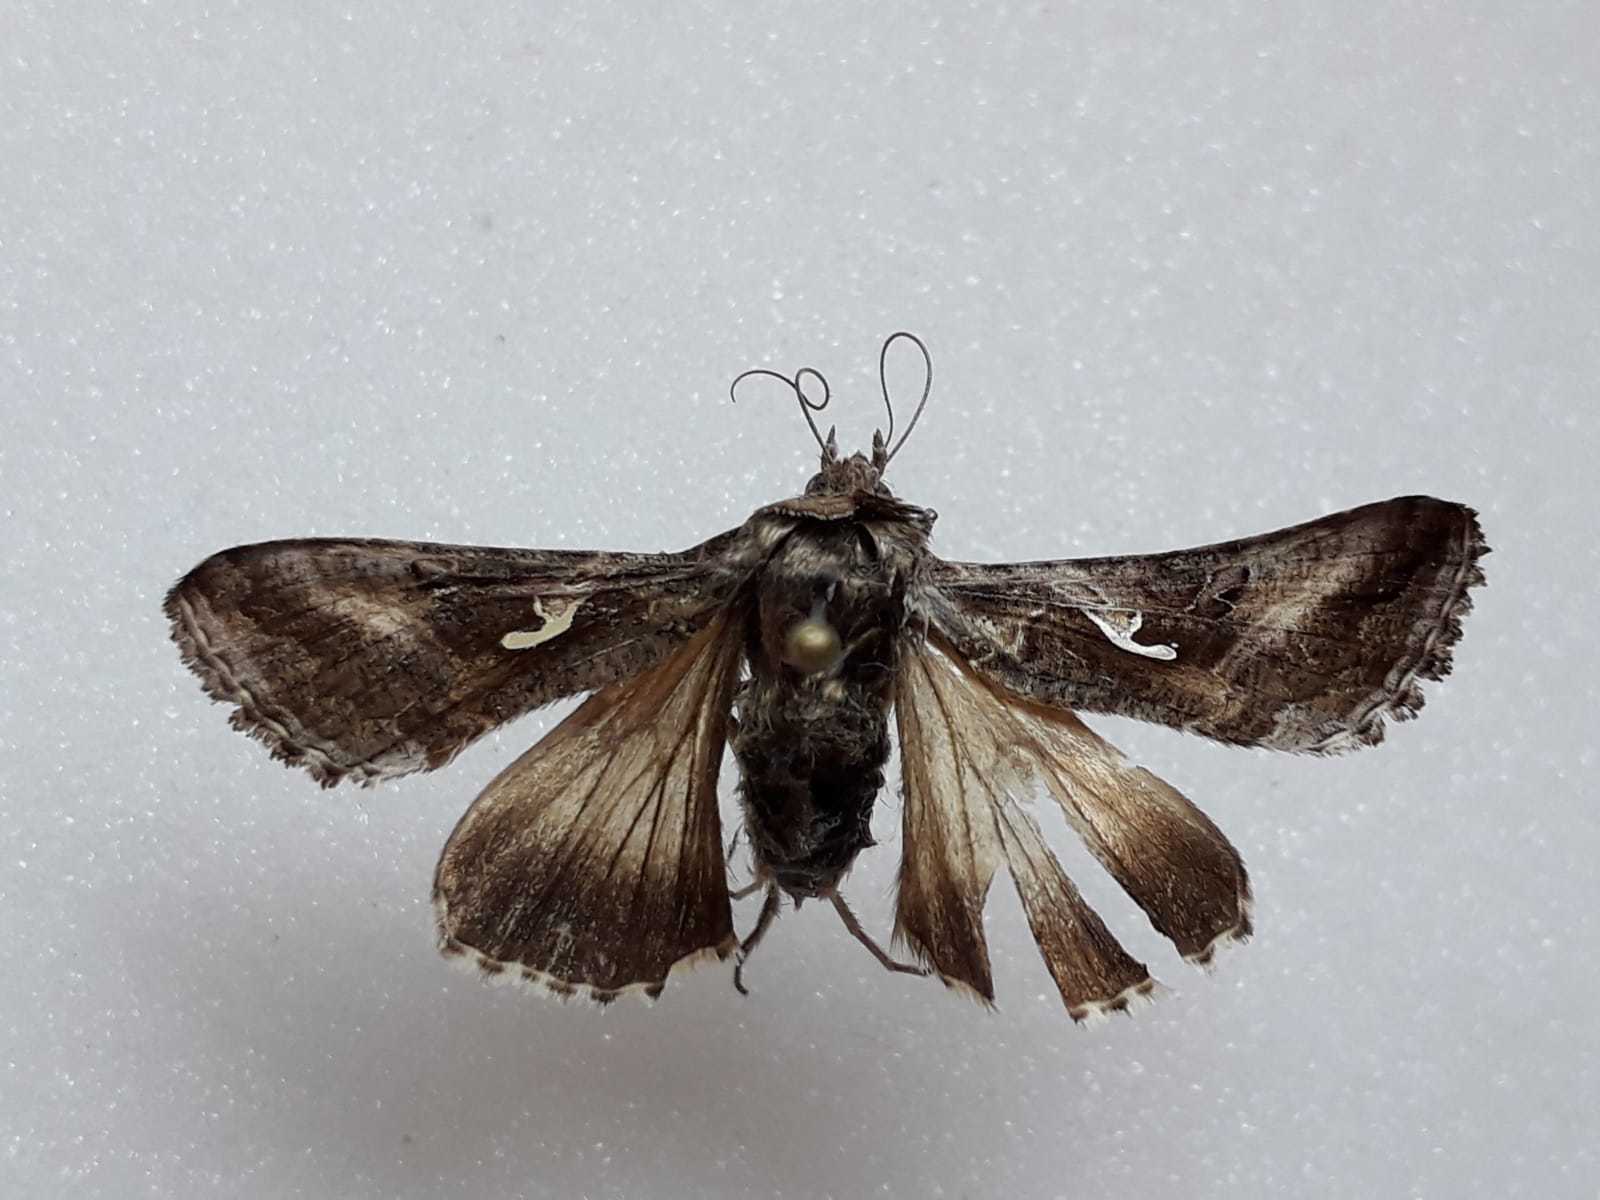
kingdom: Animalia
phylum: Arthropoda
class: Insecta
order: Lepidoptera
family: Noctuidae
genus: Autographa
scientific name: Autographa gamma
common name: Silver y
